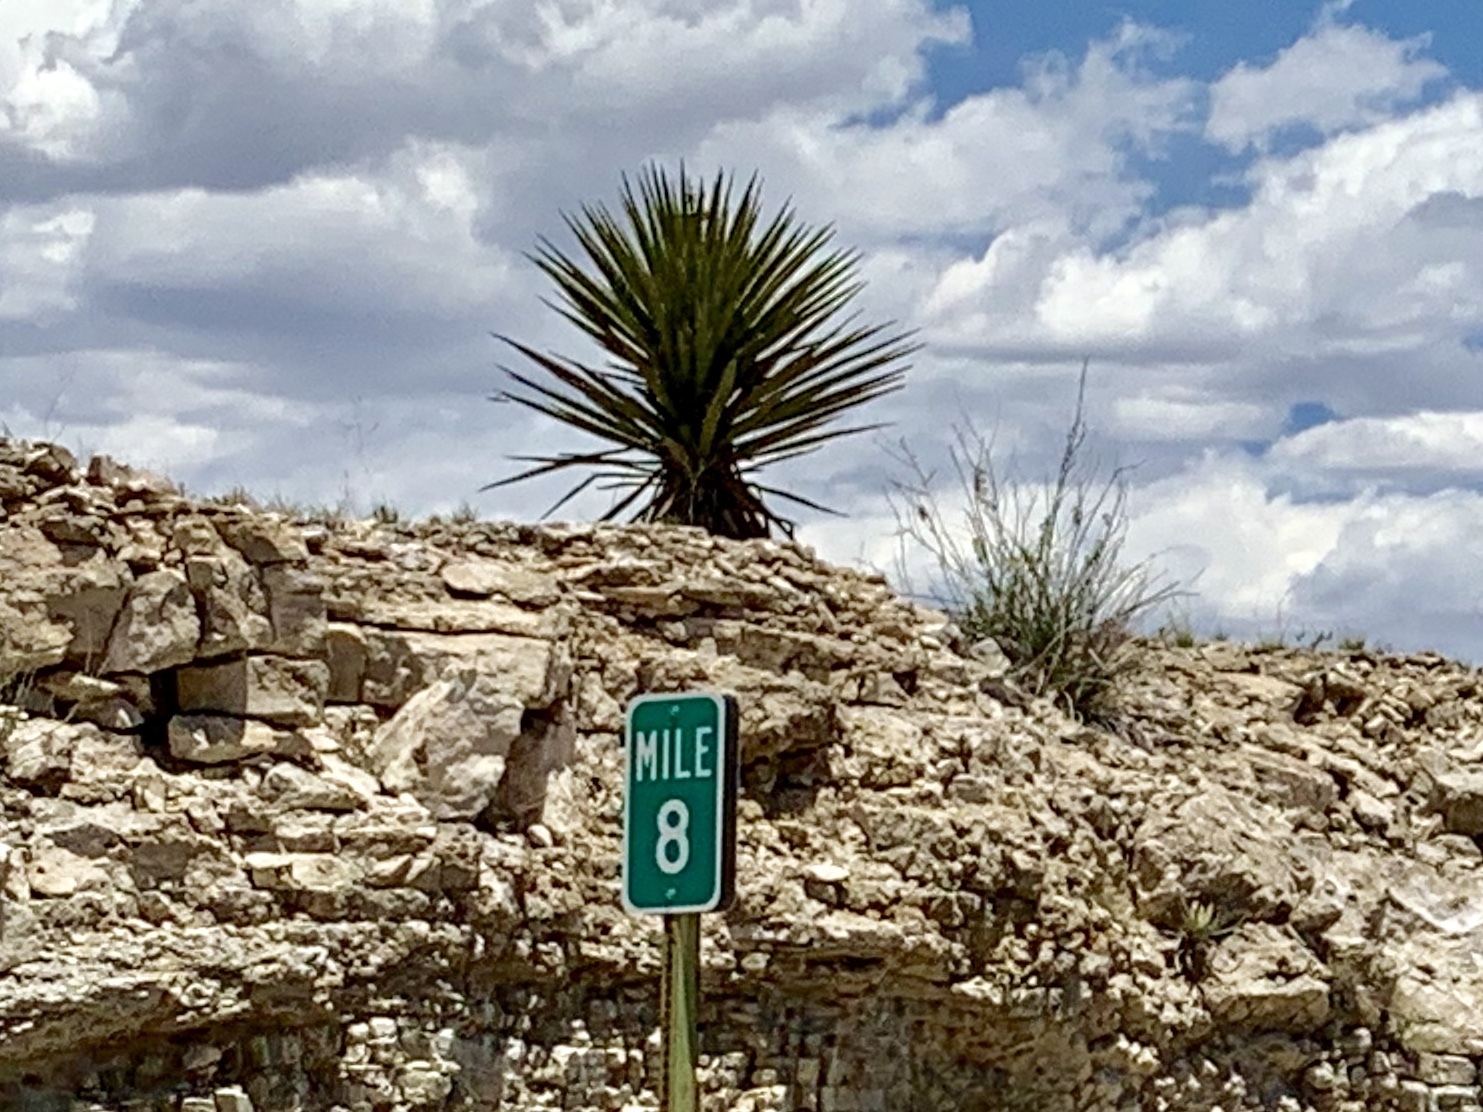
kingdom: Plantae
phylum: Tracheophyta
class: Liliopsida
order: Asparagales
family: Asparagaceae
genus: Yucca
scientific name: Yucca treculiana
